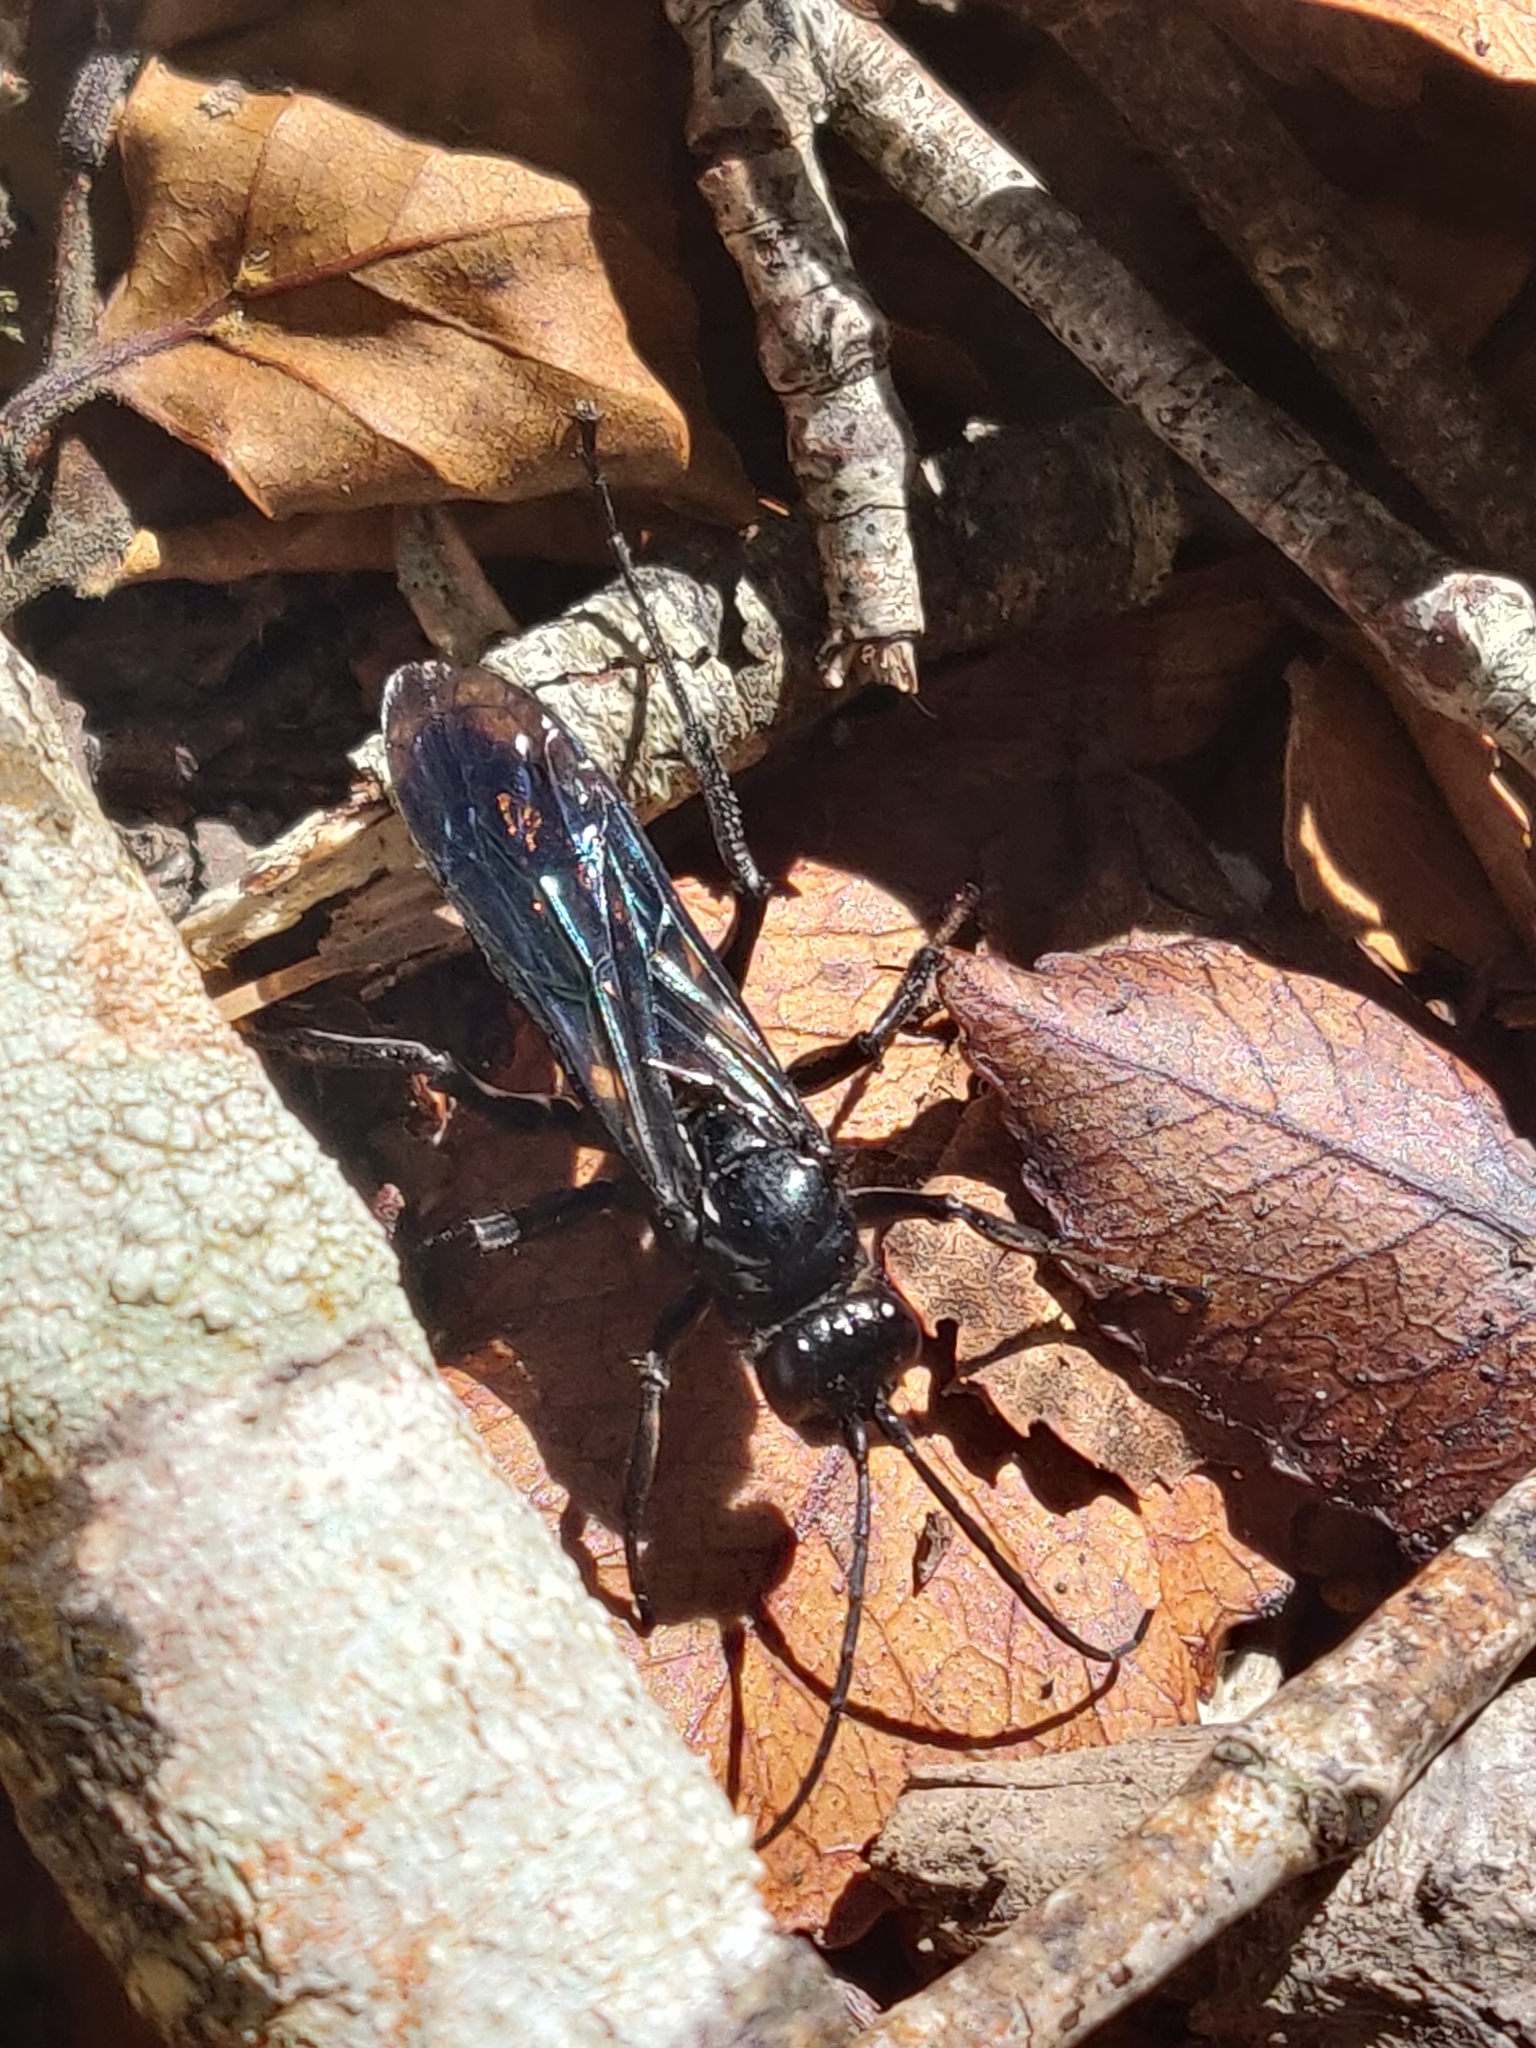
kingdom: Animalia
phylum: Arthropoda
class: Insecta
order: Hymenoptera
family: Pompilidae
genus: Priocnemis
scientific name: Priocnemis monachus
